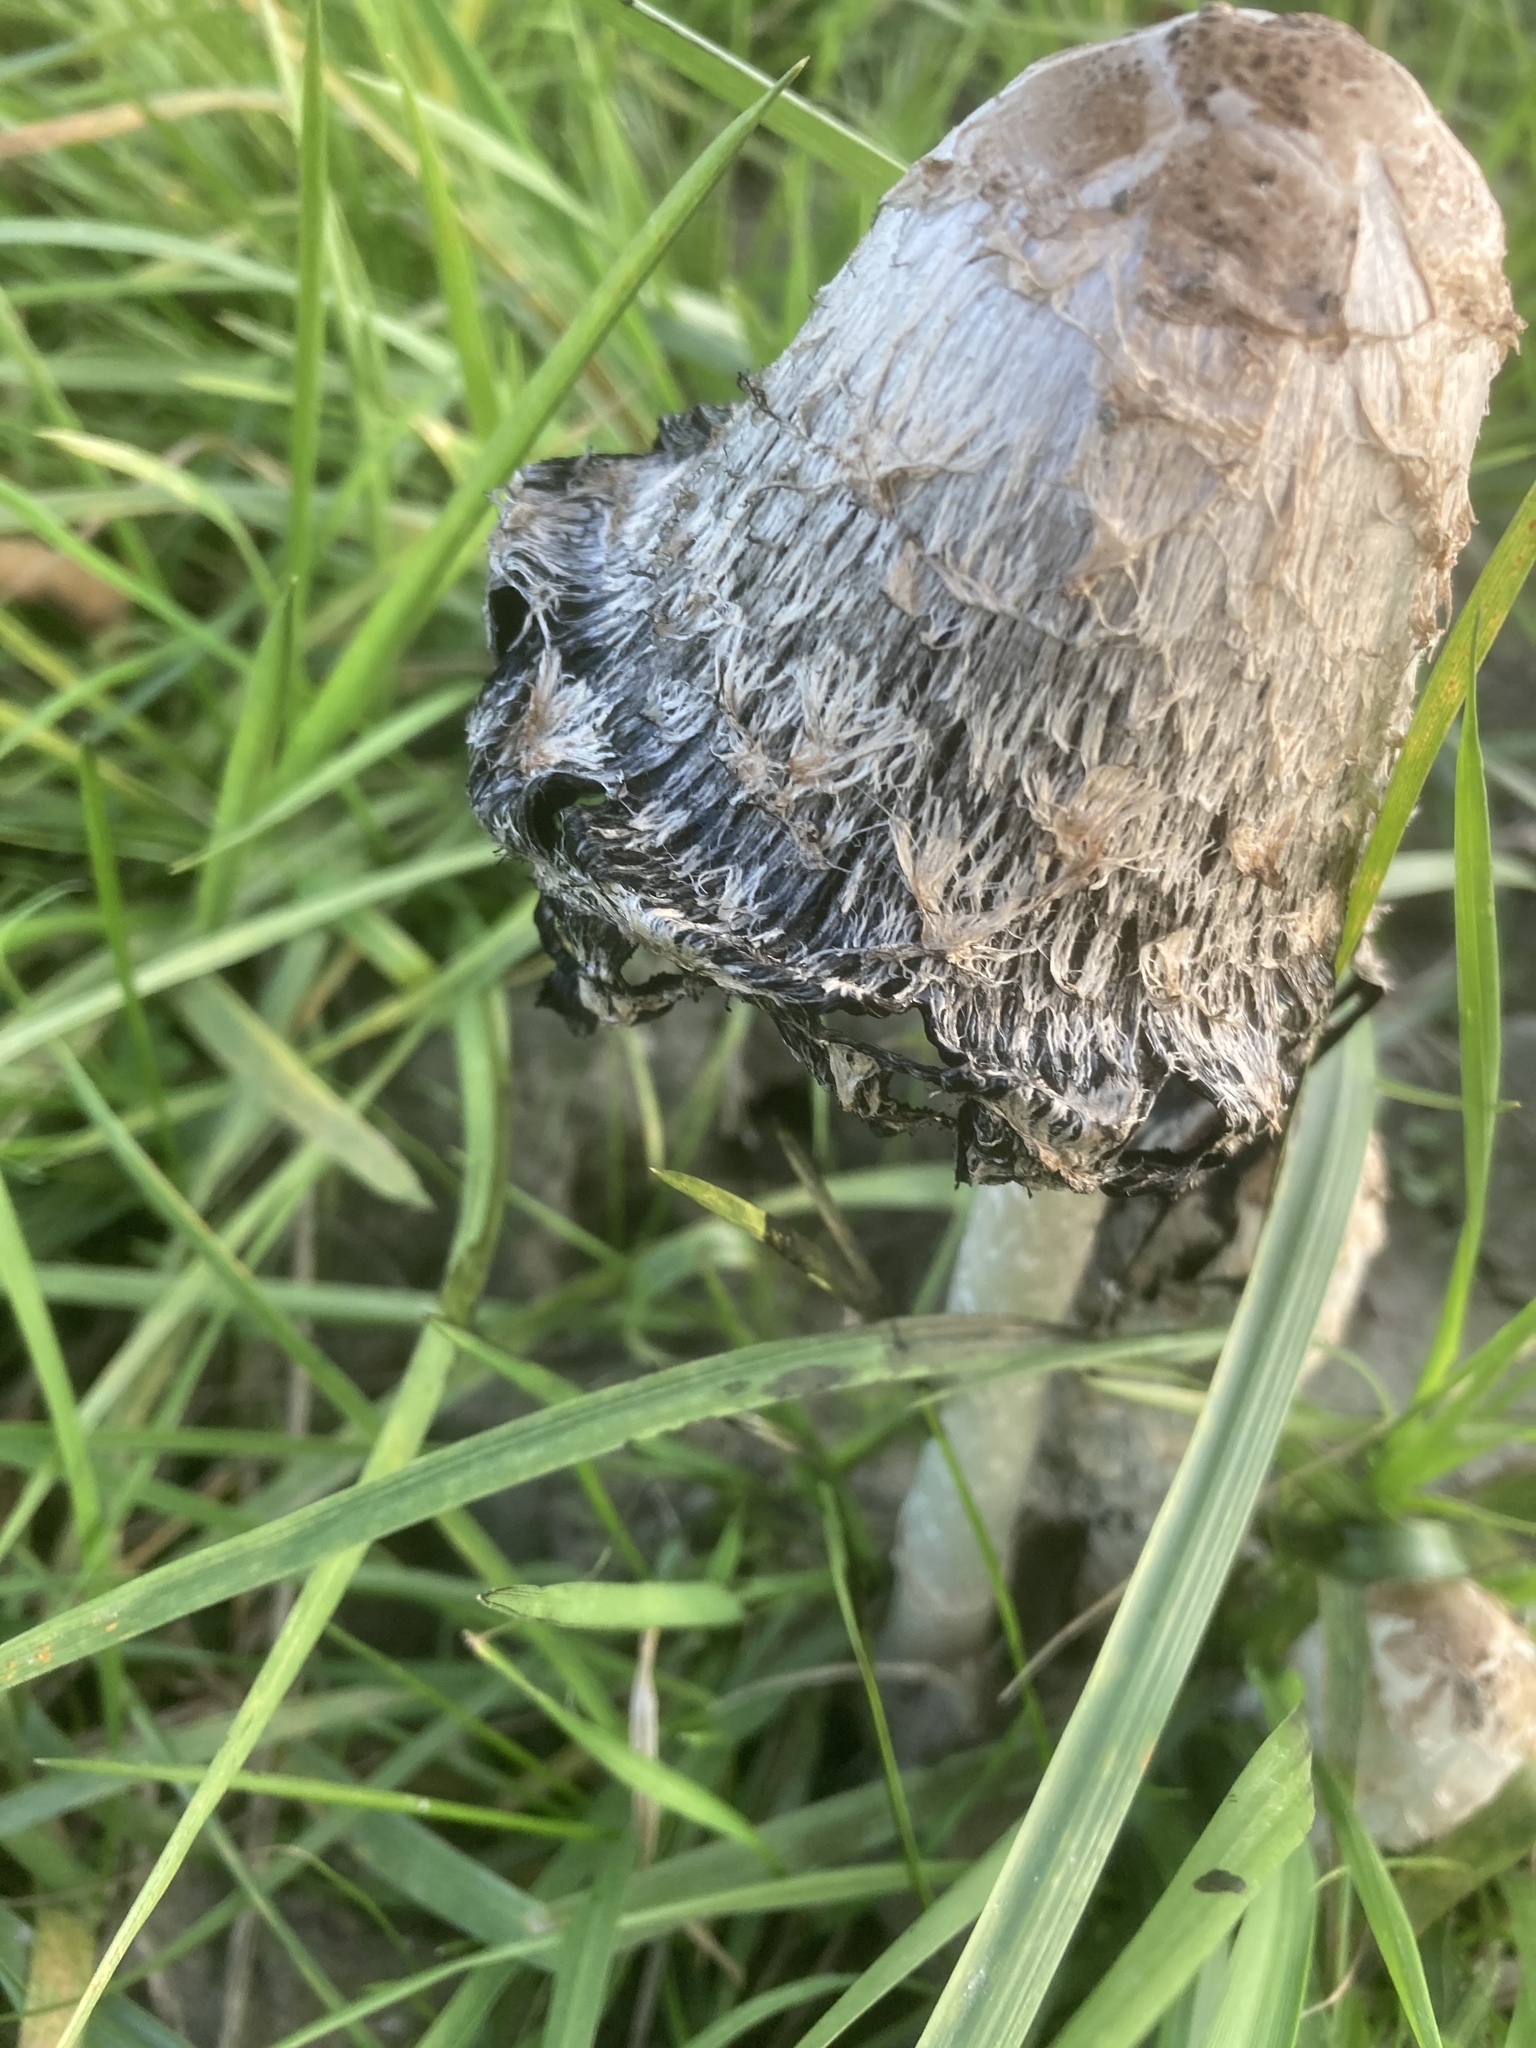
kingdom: Fungi
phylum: Basidiomycota
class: Agaricomycetes
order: Agaricales
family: Agaricaceae
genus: Coprinus
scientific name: Coprinus comatus
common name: Lawyer's wig
